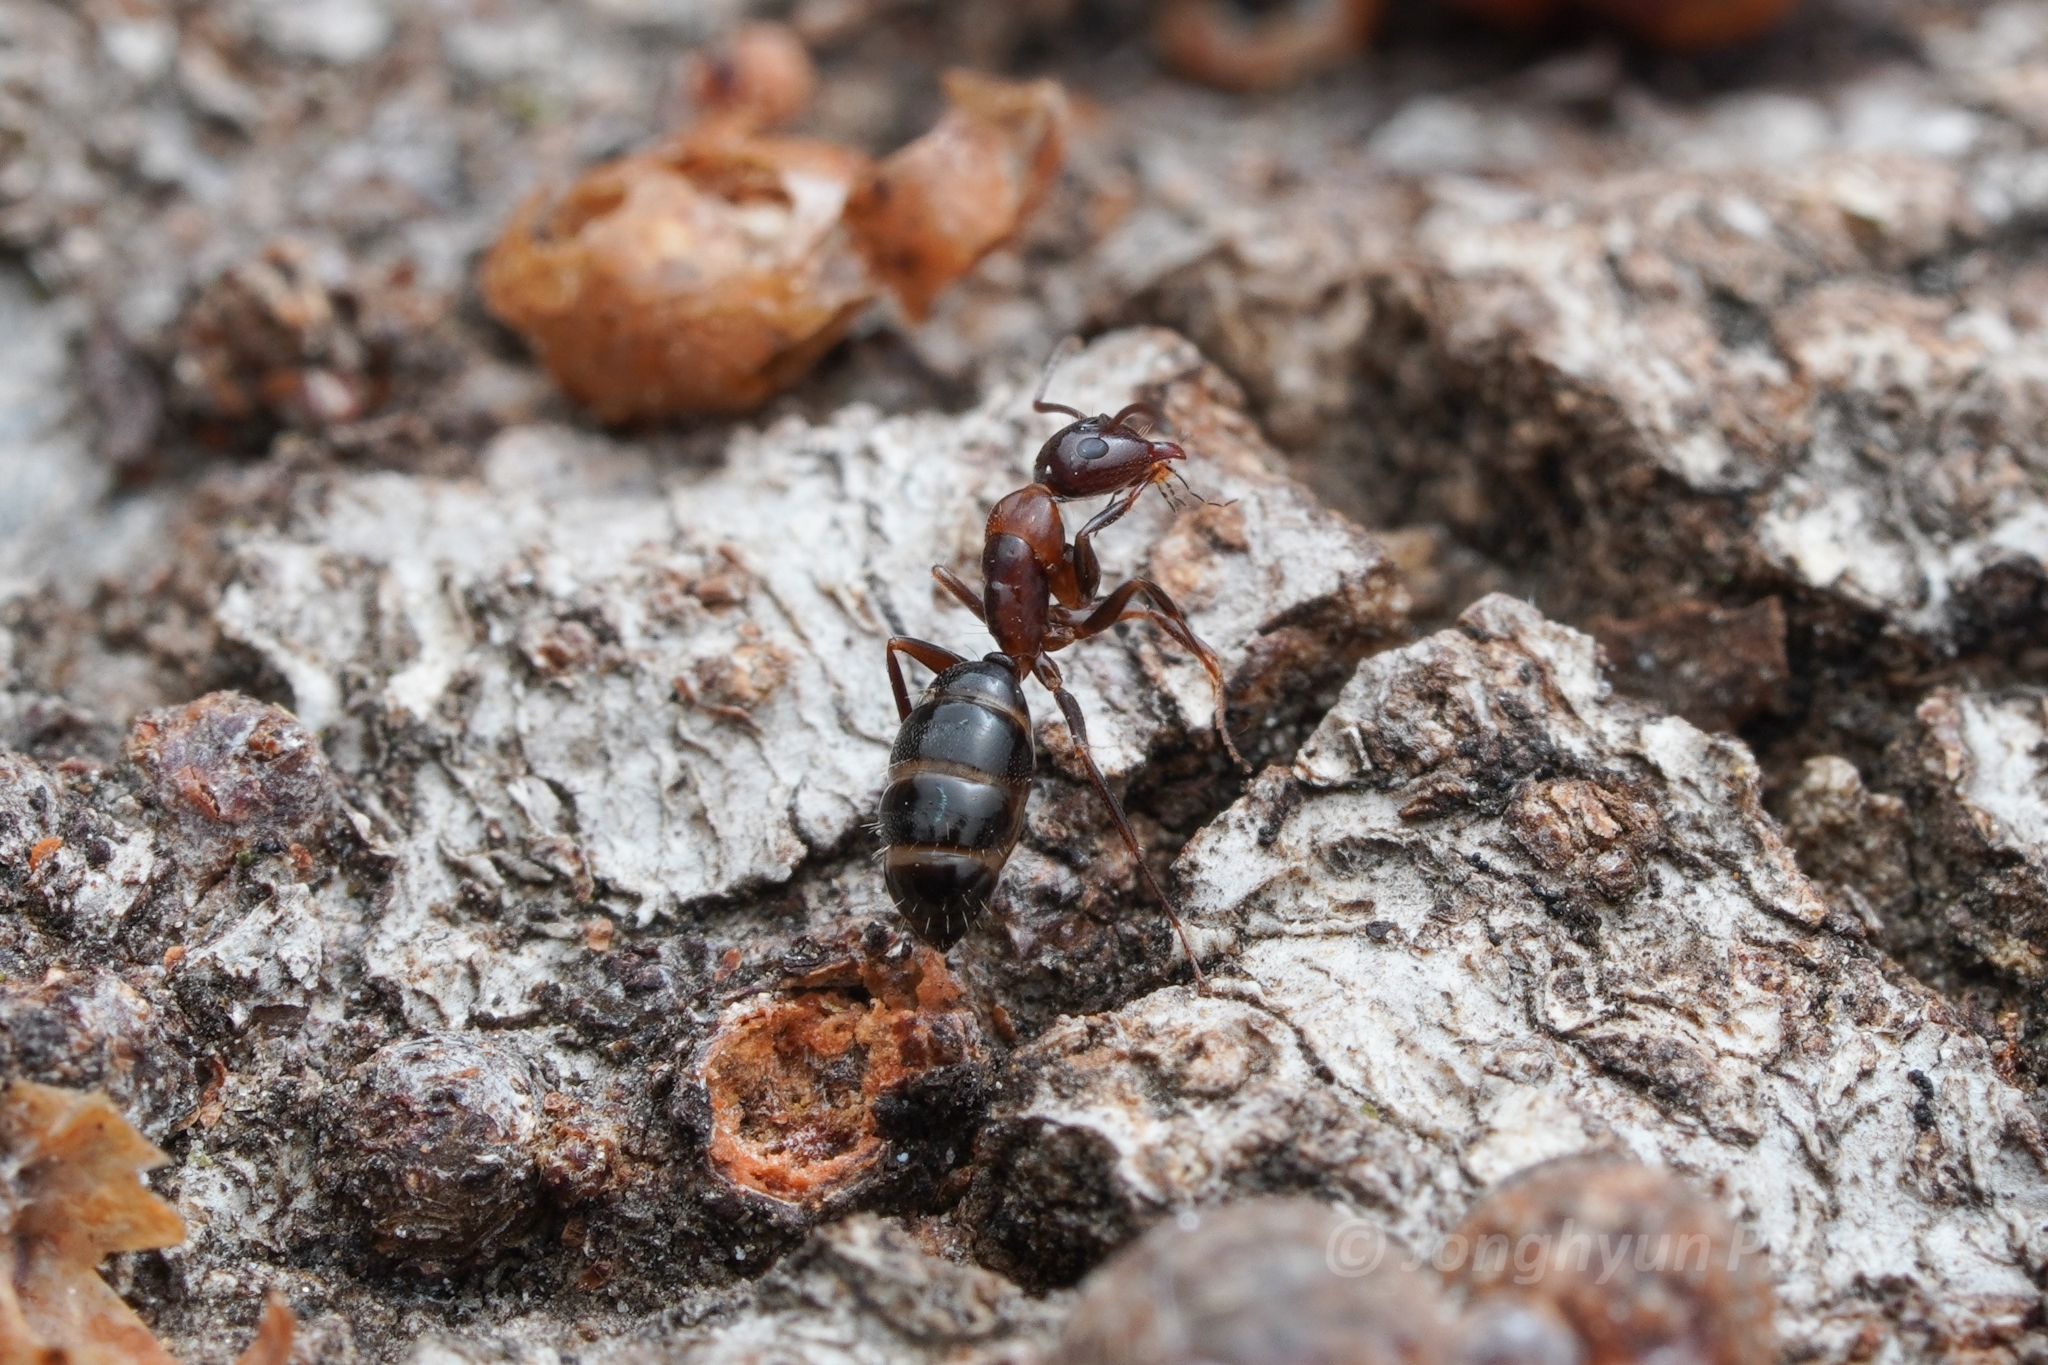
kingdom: Animalia
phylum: Arthropoda
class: Insecta
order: Hymenoptera
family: Formicidae
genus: Camponotus
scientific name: Camponotus hyatti
